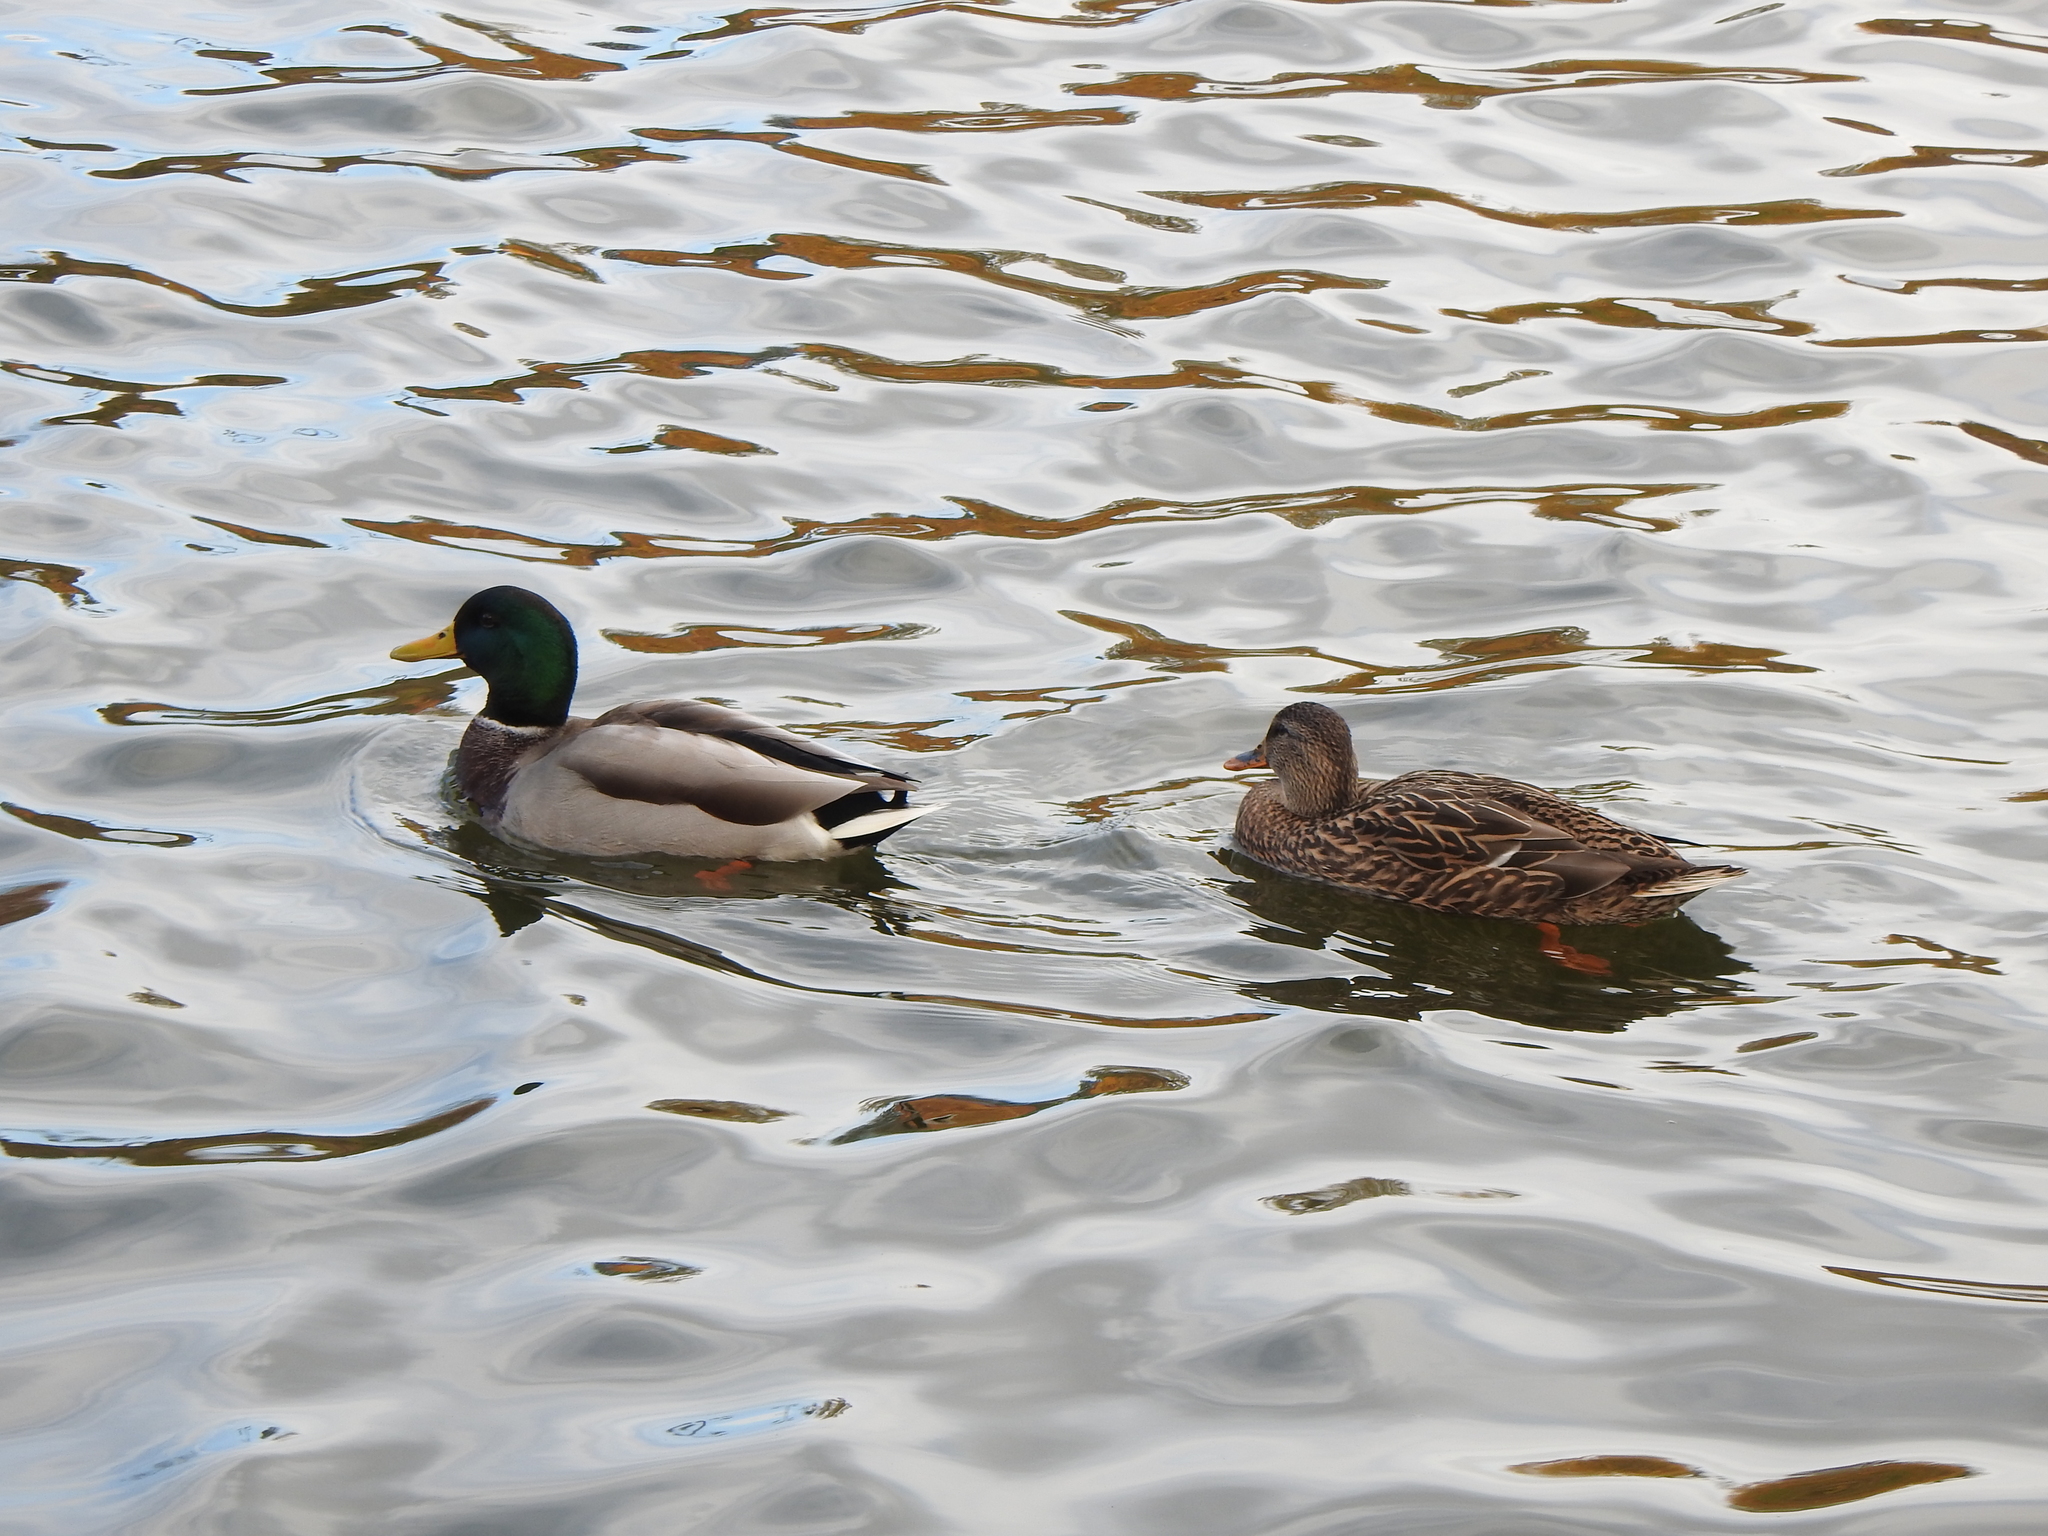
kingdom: Animalia
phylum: Chordata
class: Aves
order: Anseriformes
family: Anatidae
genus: Anas
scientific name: Anas platyrhynchos
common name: Mallard
